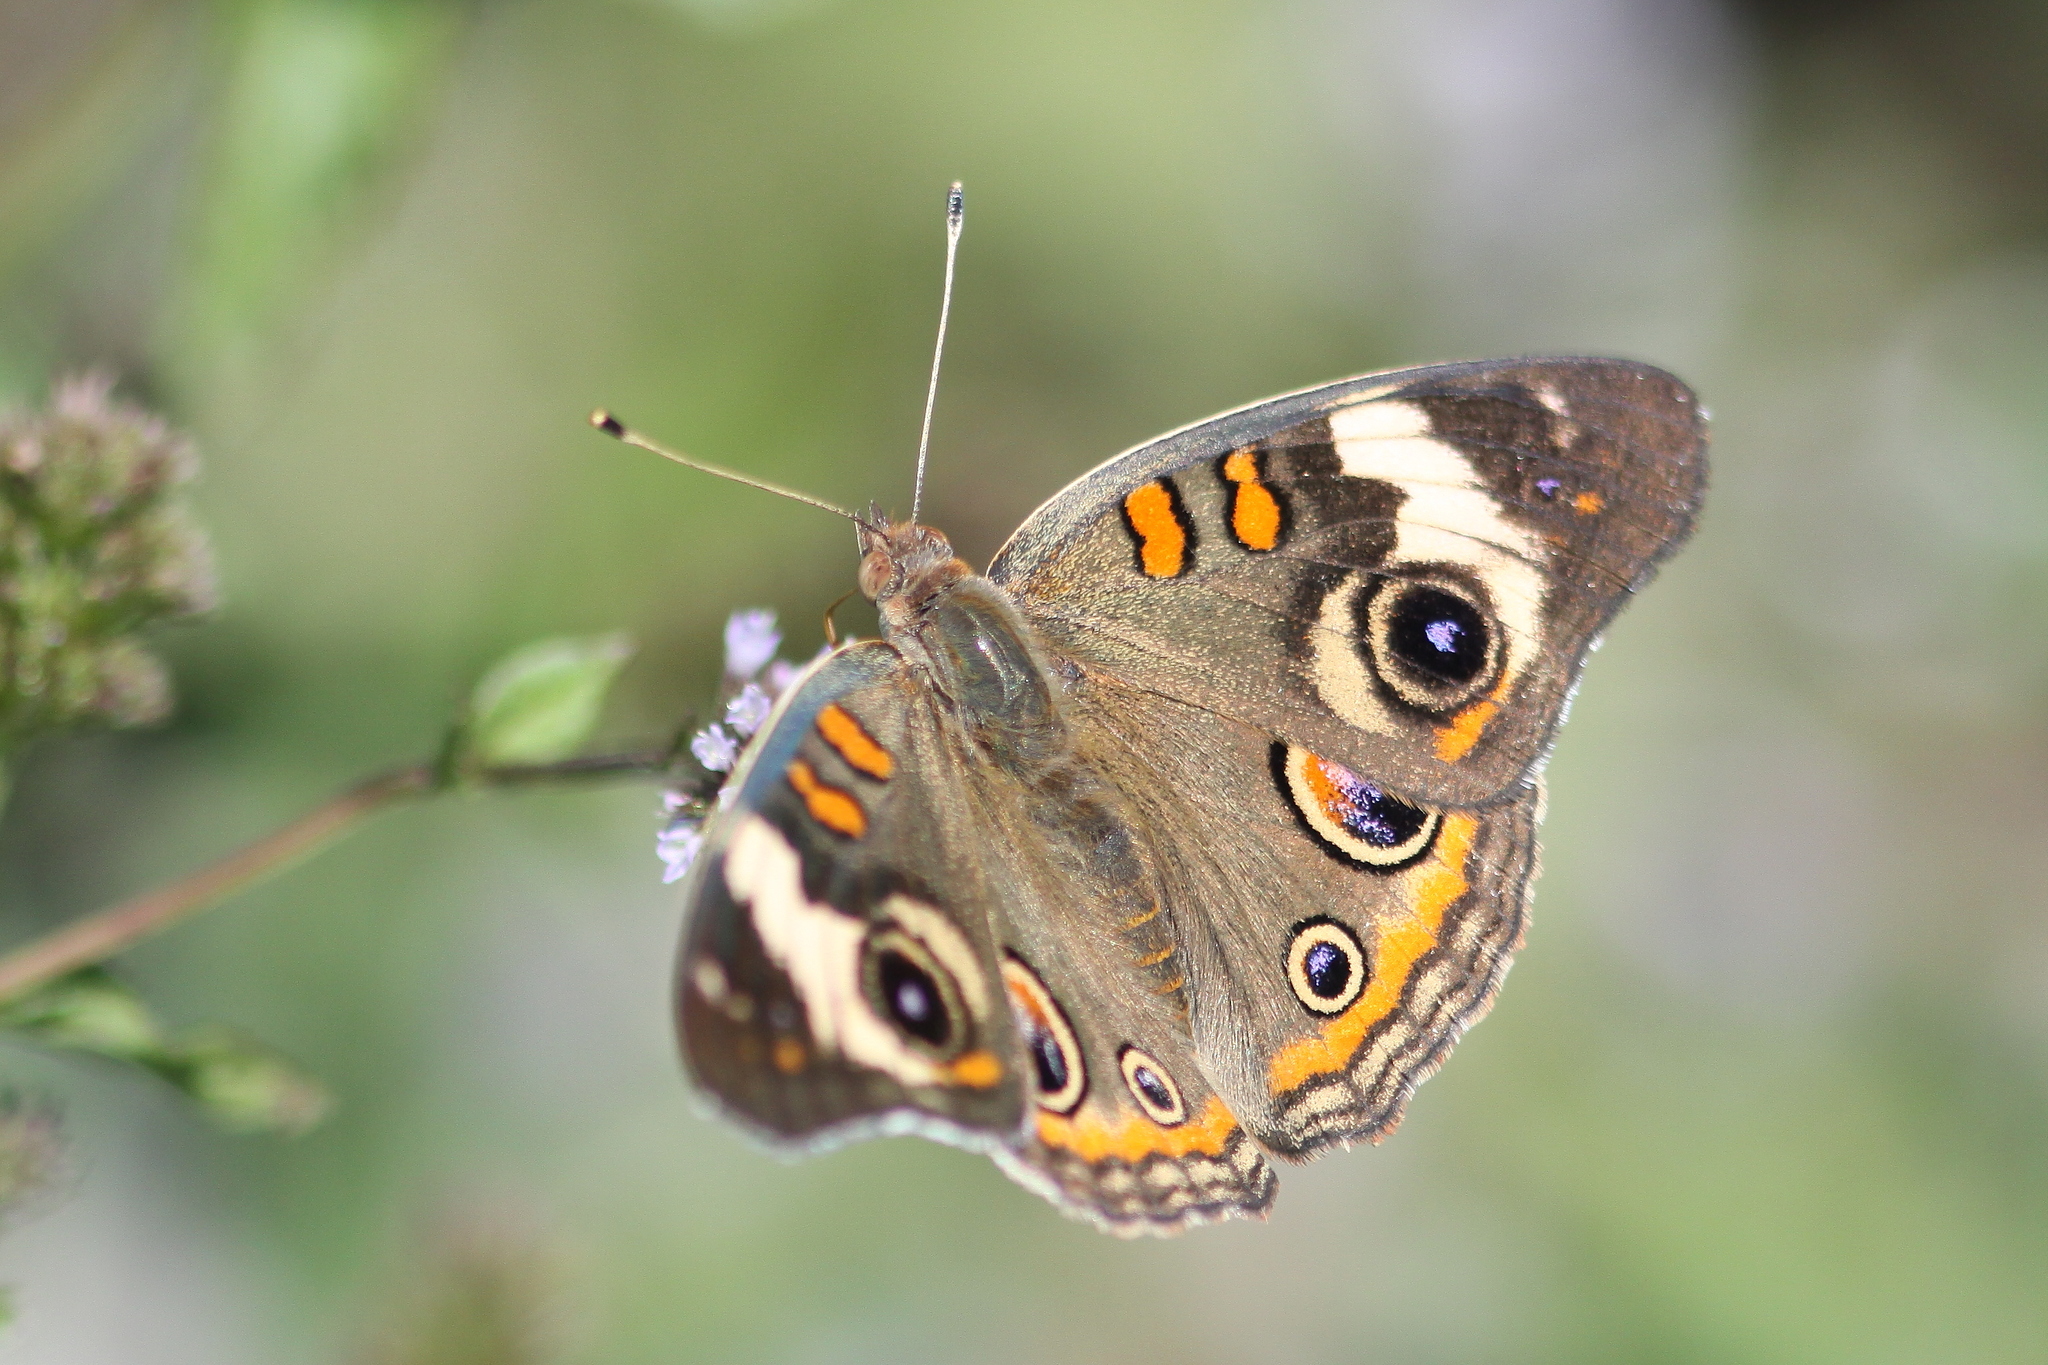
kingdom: Animalia
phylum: Arthropoda
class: Insecta
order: Lepidoptera
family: Nymphalidae
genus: Junonia
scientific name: Junonia coenia
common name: Common buckeye
